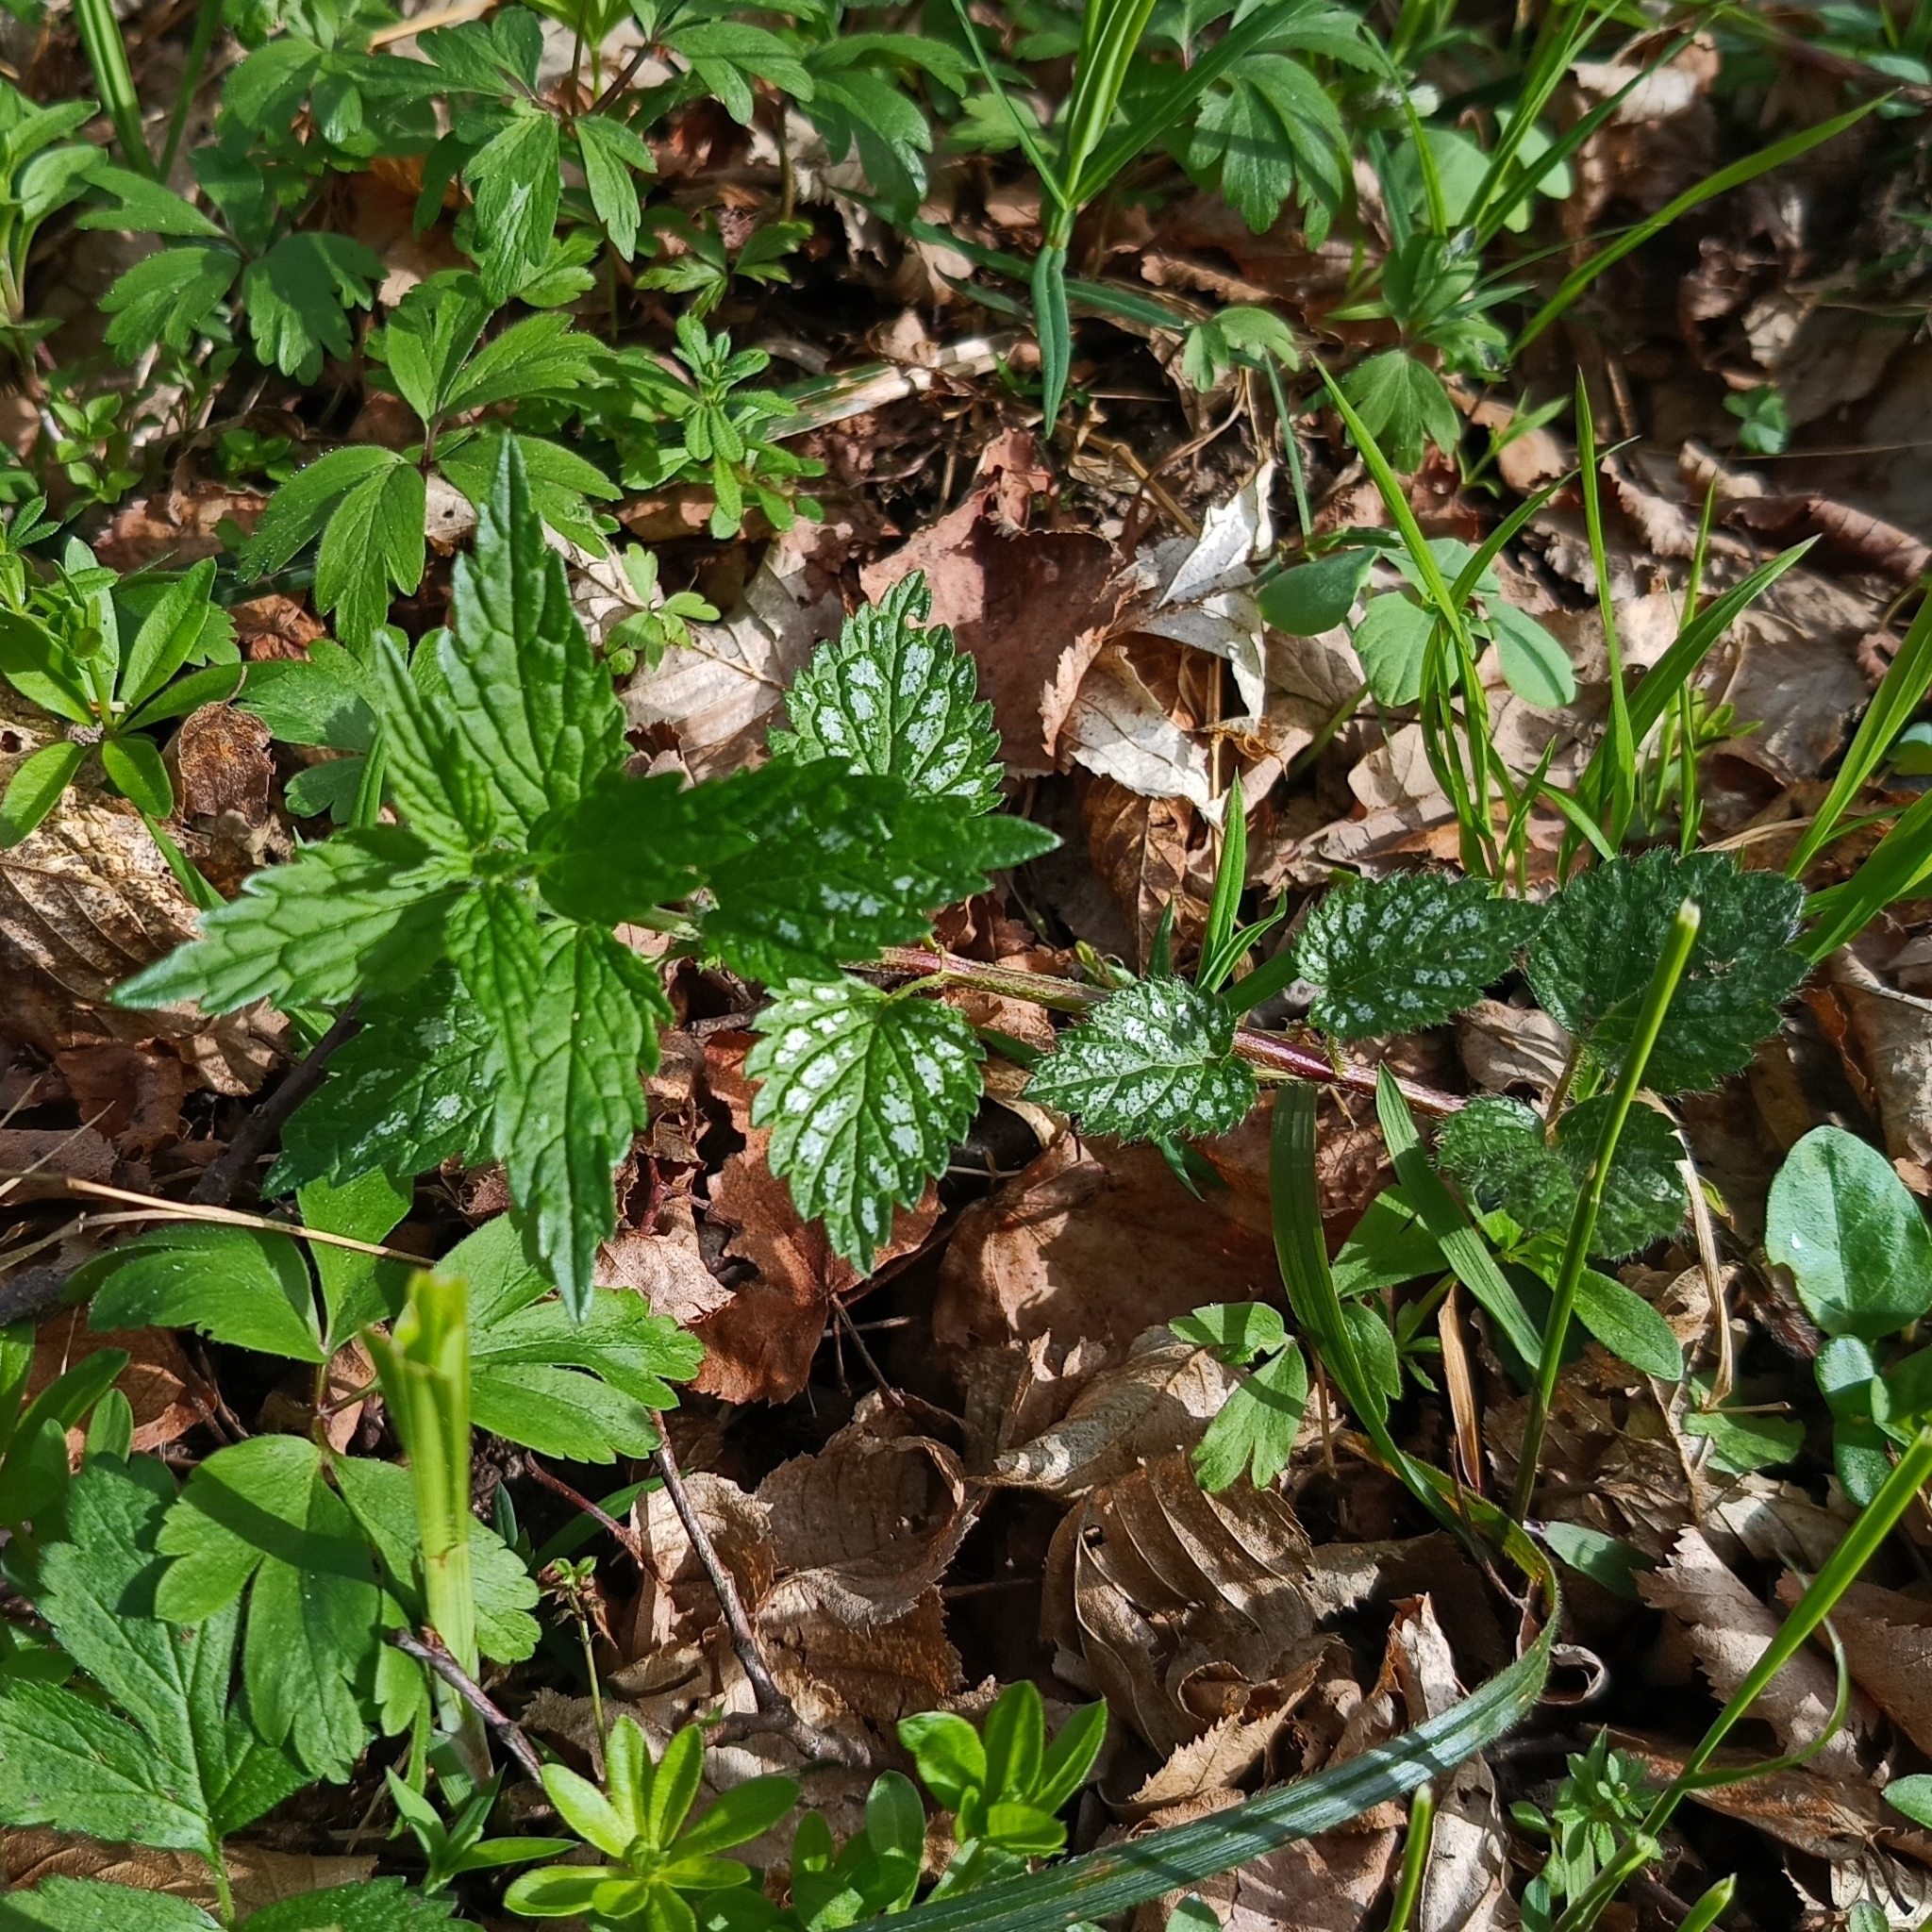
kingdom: Plantae
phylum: Tracheophyta
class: Magnoliopsida
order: Lamiales
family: Lamiaceae
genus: Lamium
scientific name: Lamium galeobdolon
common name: Yellow archangel
